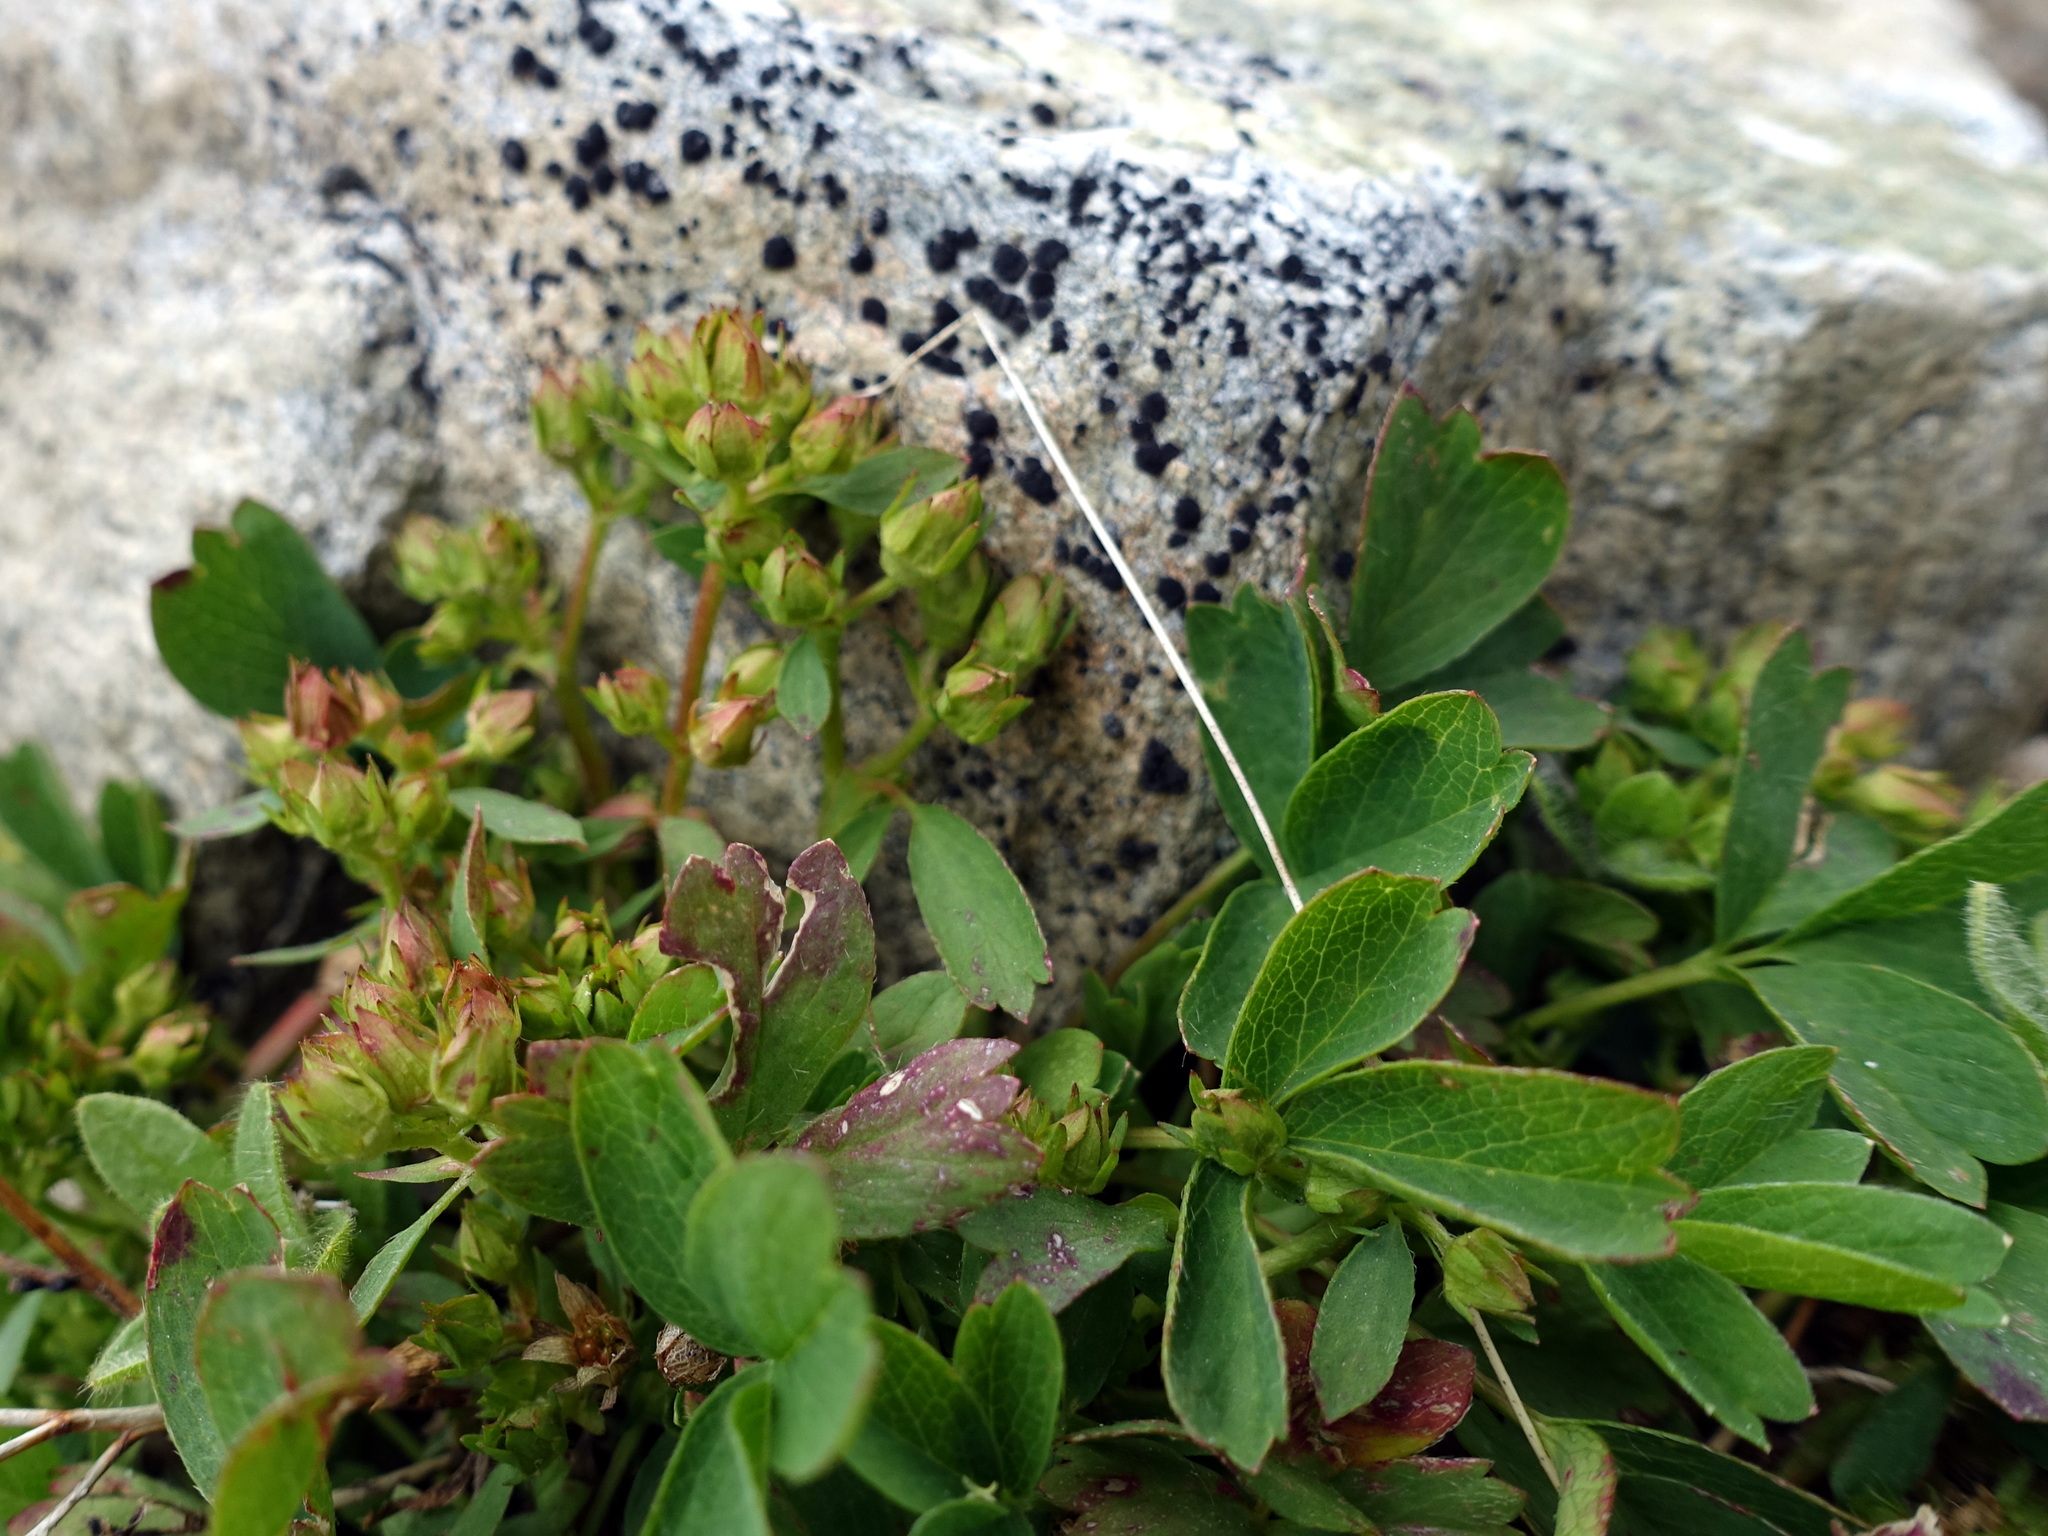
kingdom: Plantae
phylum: Tracheophyta
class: Magnoliopsida
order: Rosales
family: Rosaceae
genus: Sibbaldia
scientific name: Sibbaldia procumbens
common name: Creeping sibbaldia
